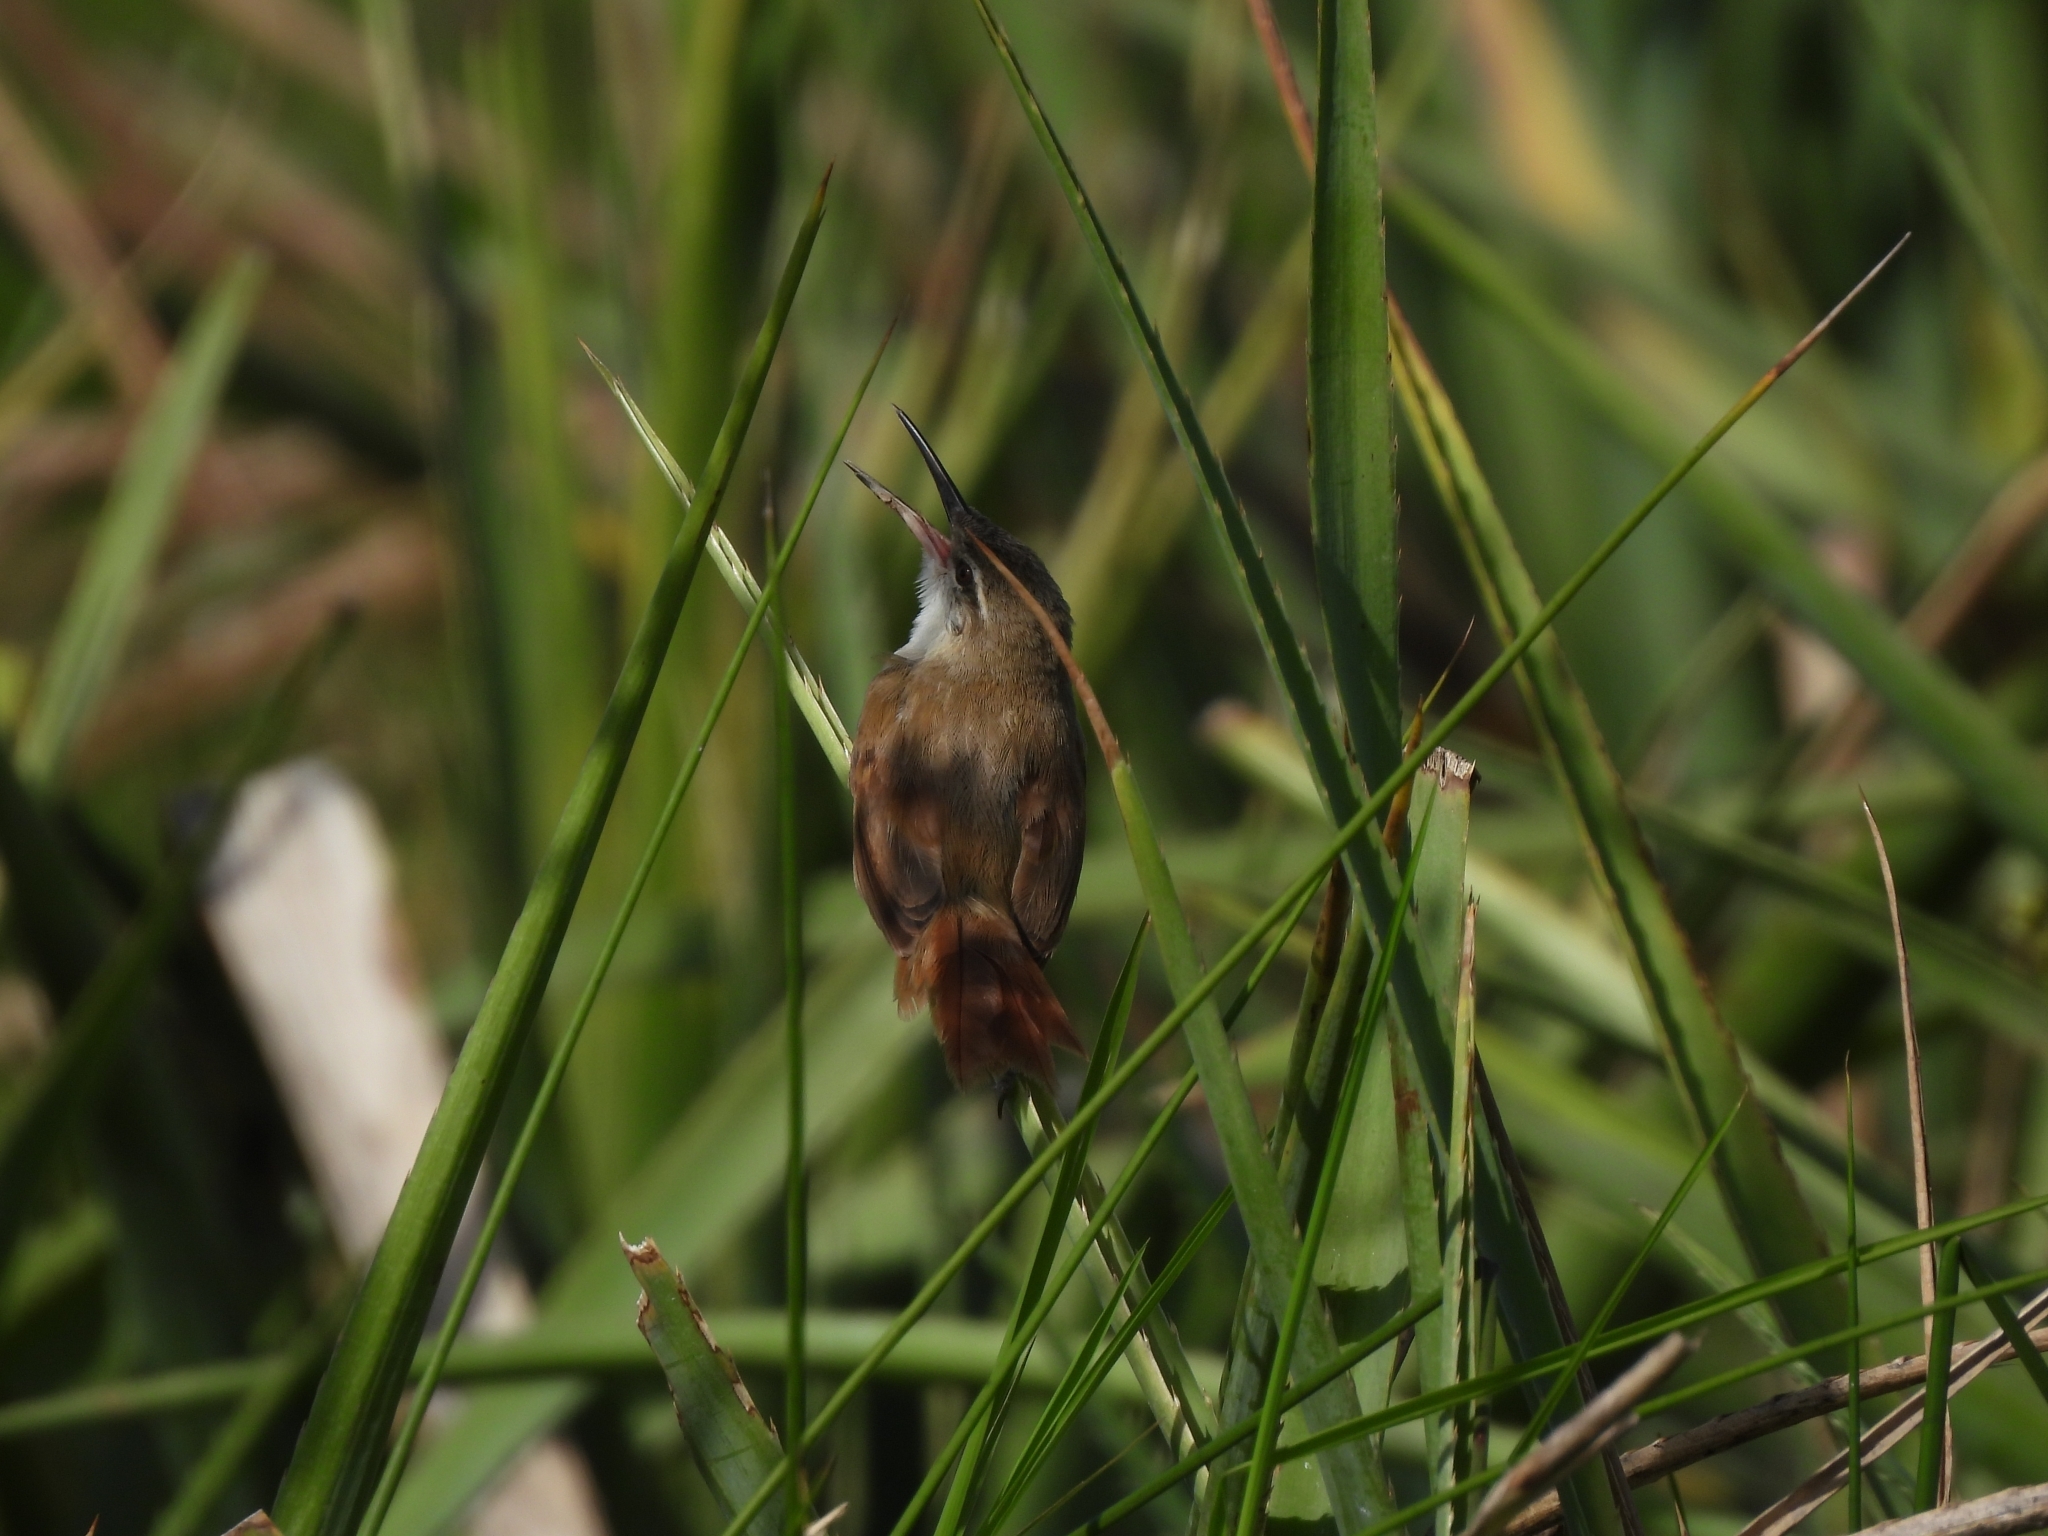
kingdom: Animalia
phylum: Chordata
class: Aves
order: Passeriformes
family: Furnariidae
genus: Limnornis
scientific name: Limnornis rectirostris
